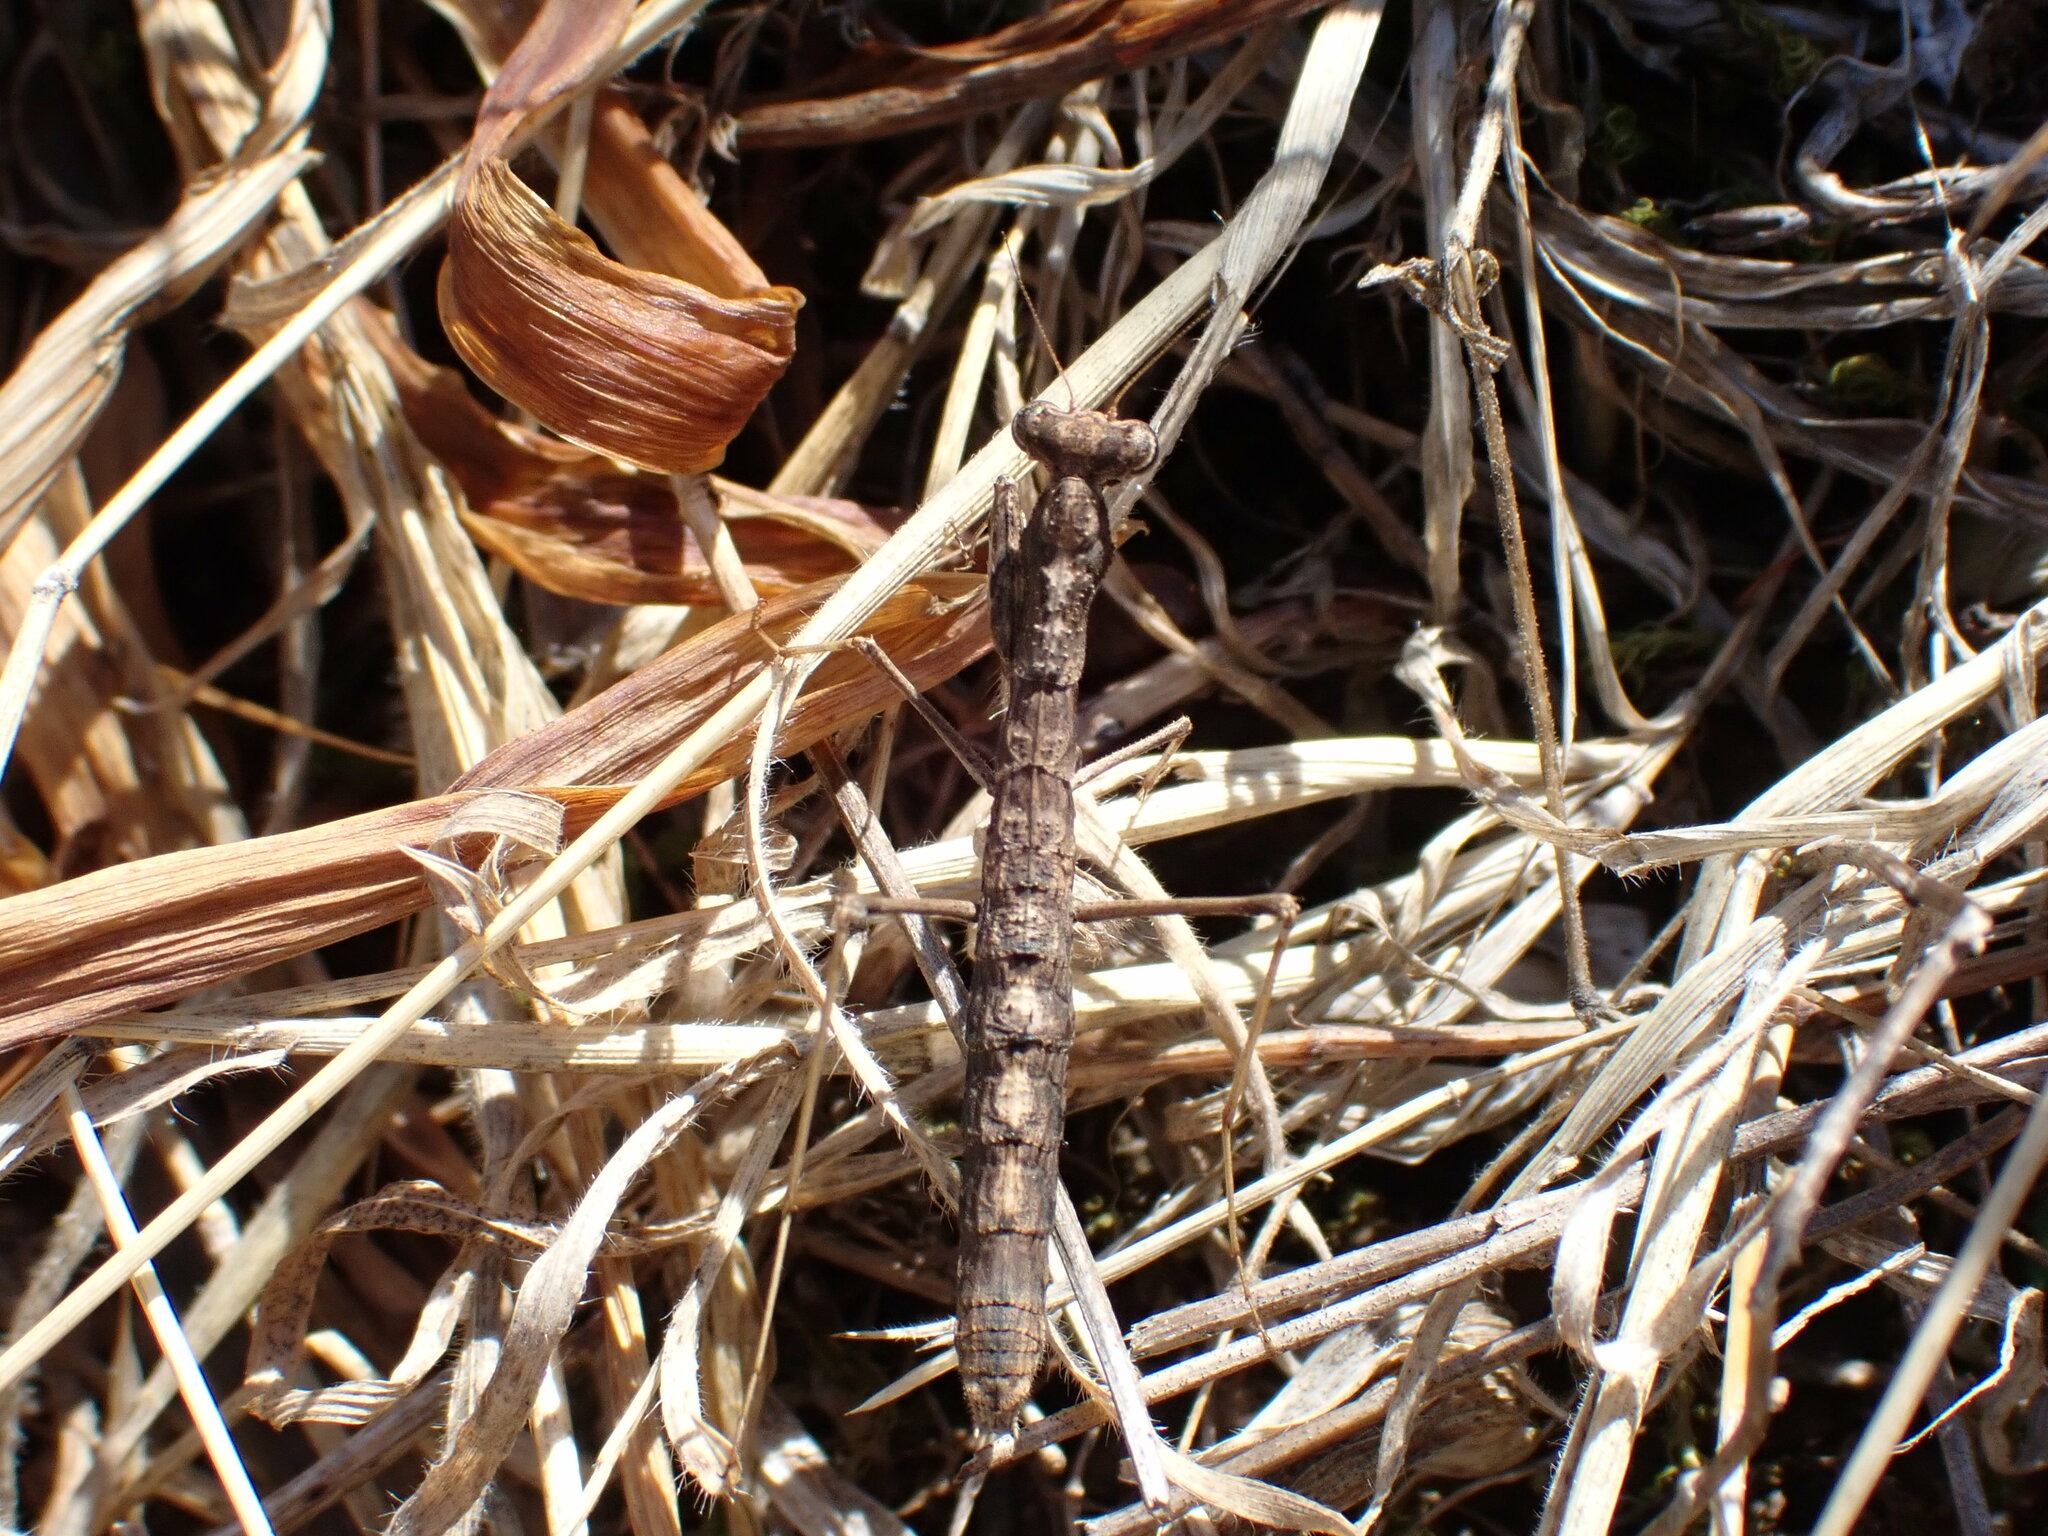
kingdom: Animalia
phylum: Arthropoda
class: Insecta
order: Mantodea
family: Rivetinidae
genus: Geomantis
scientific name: Geomantis larvoides
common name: Wingless ground mantis
